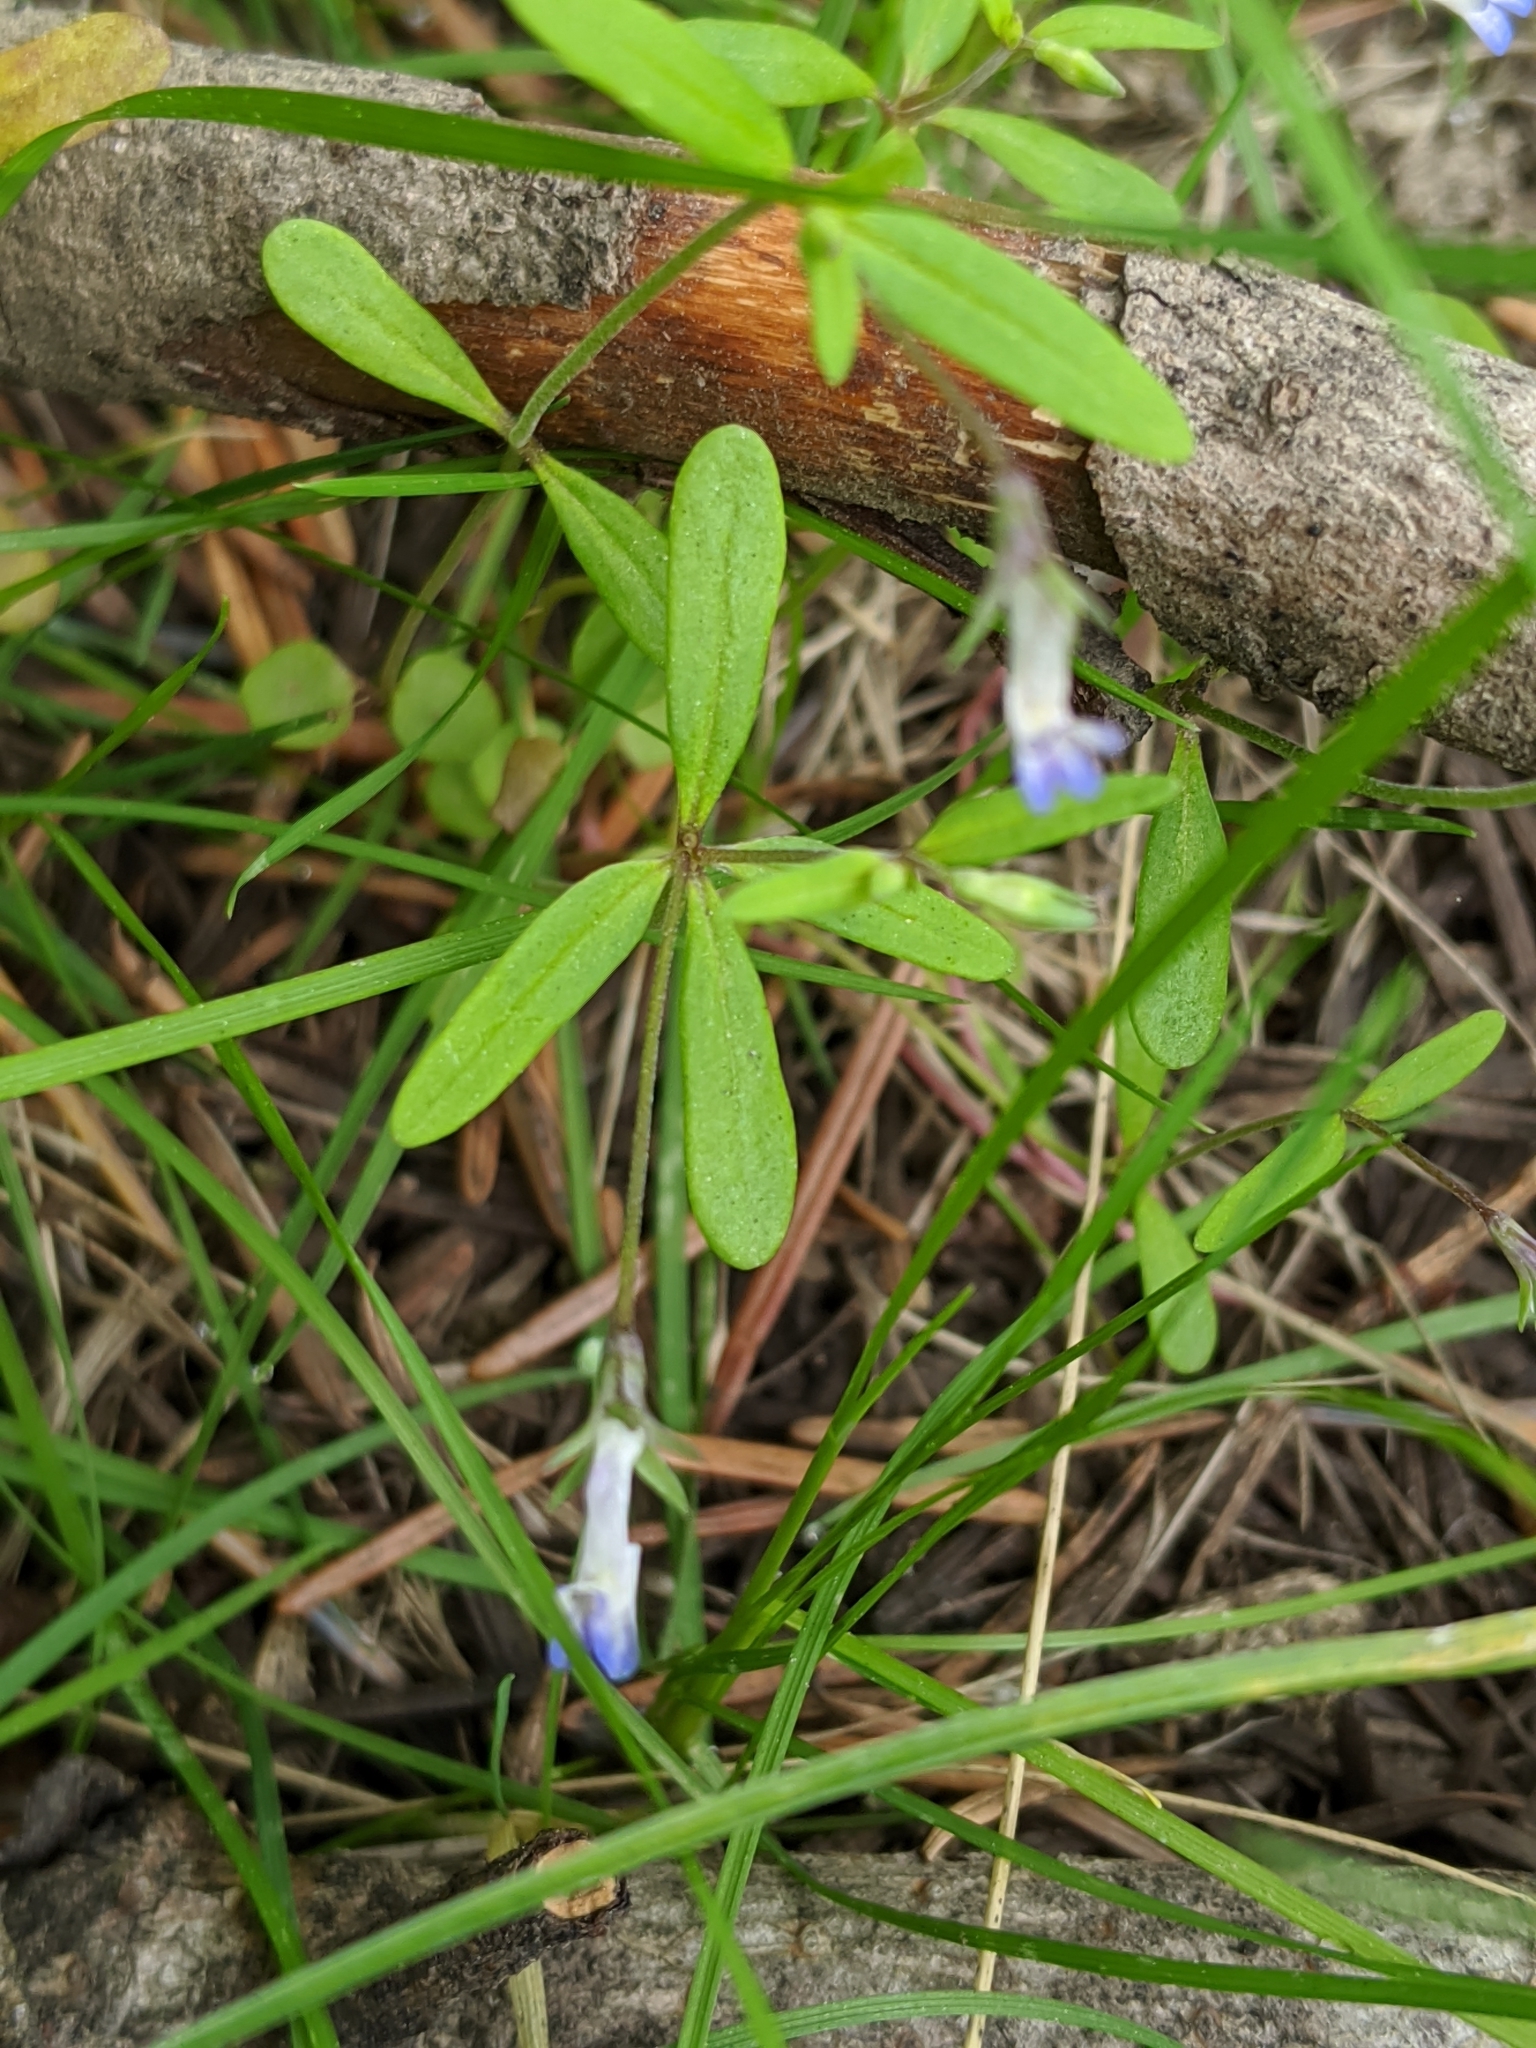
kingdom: Plantae
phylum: Tracheophyta
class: Magnoliopsida
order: Lamiales
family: Plantaginaceae
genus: Collinsia
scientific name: Collinsia parviflora
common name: Blue-lips
